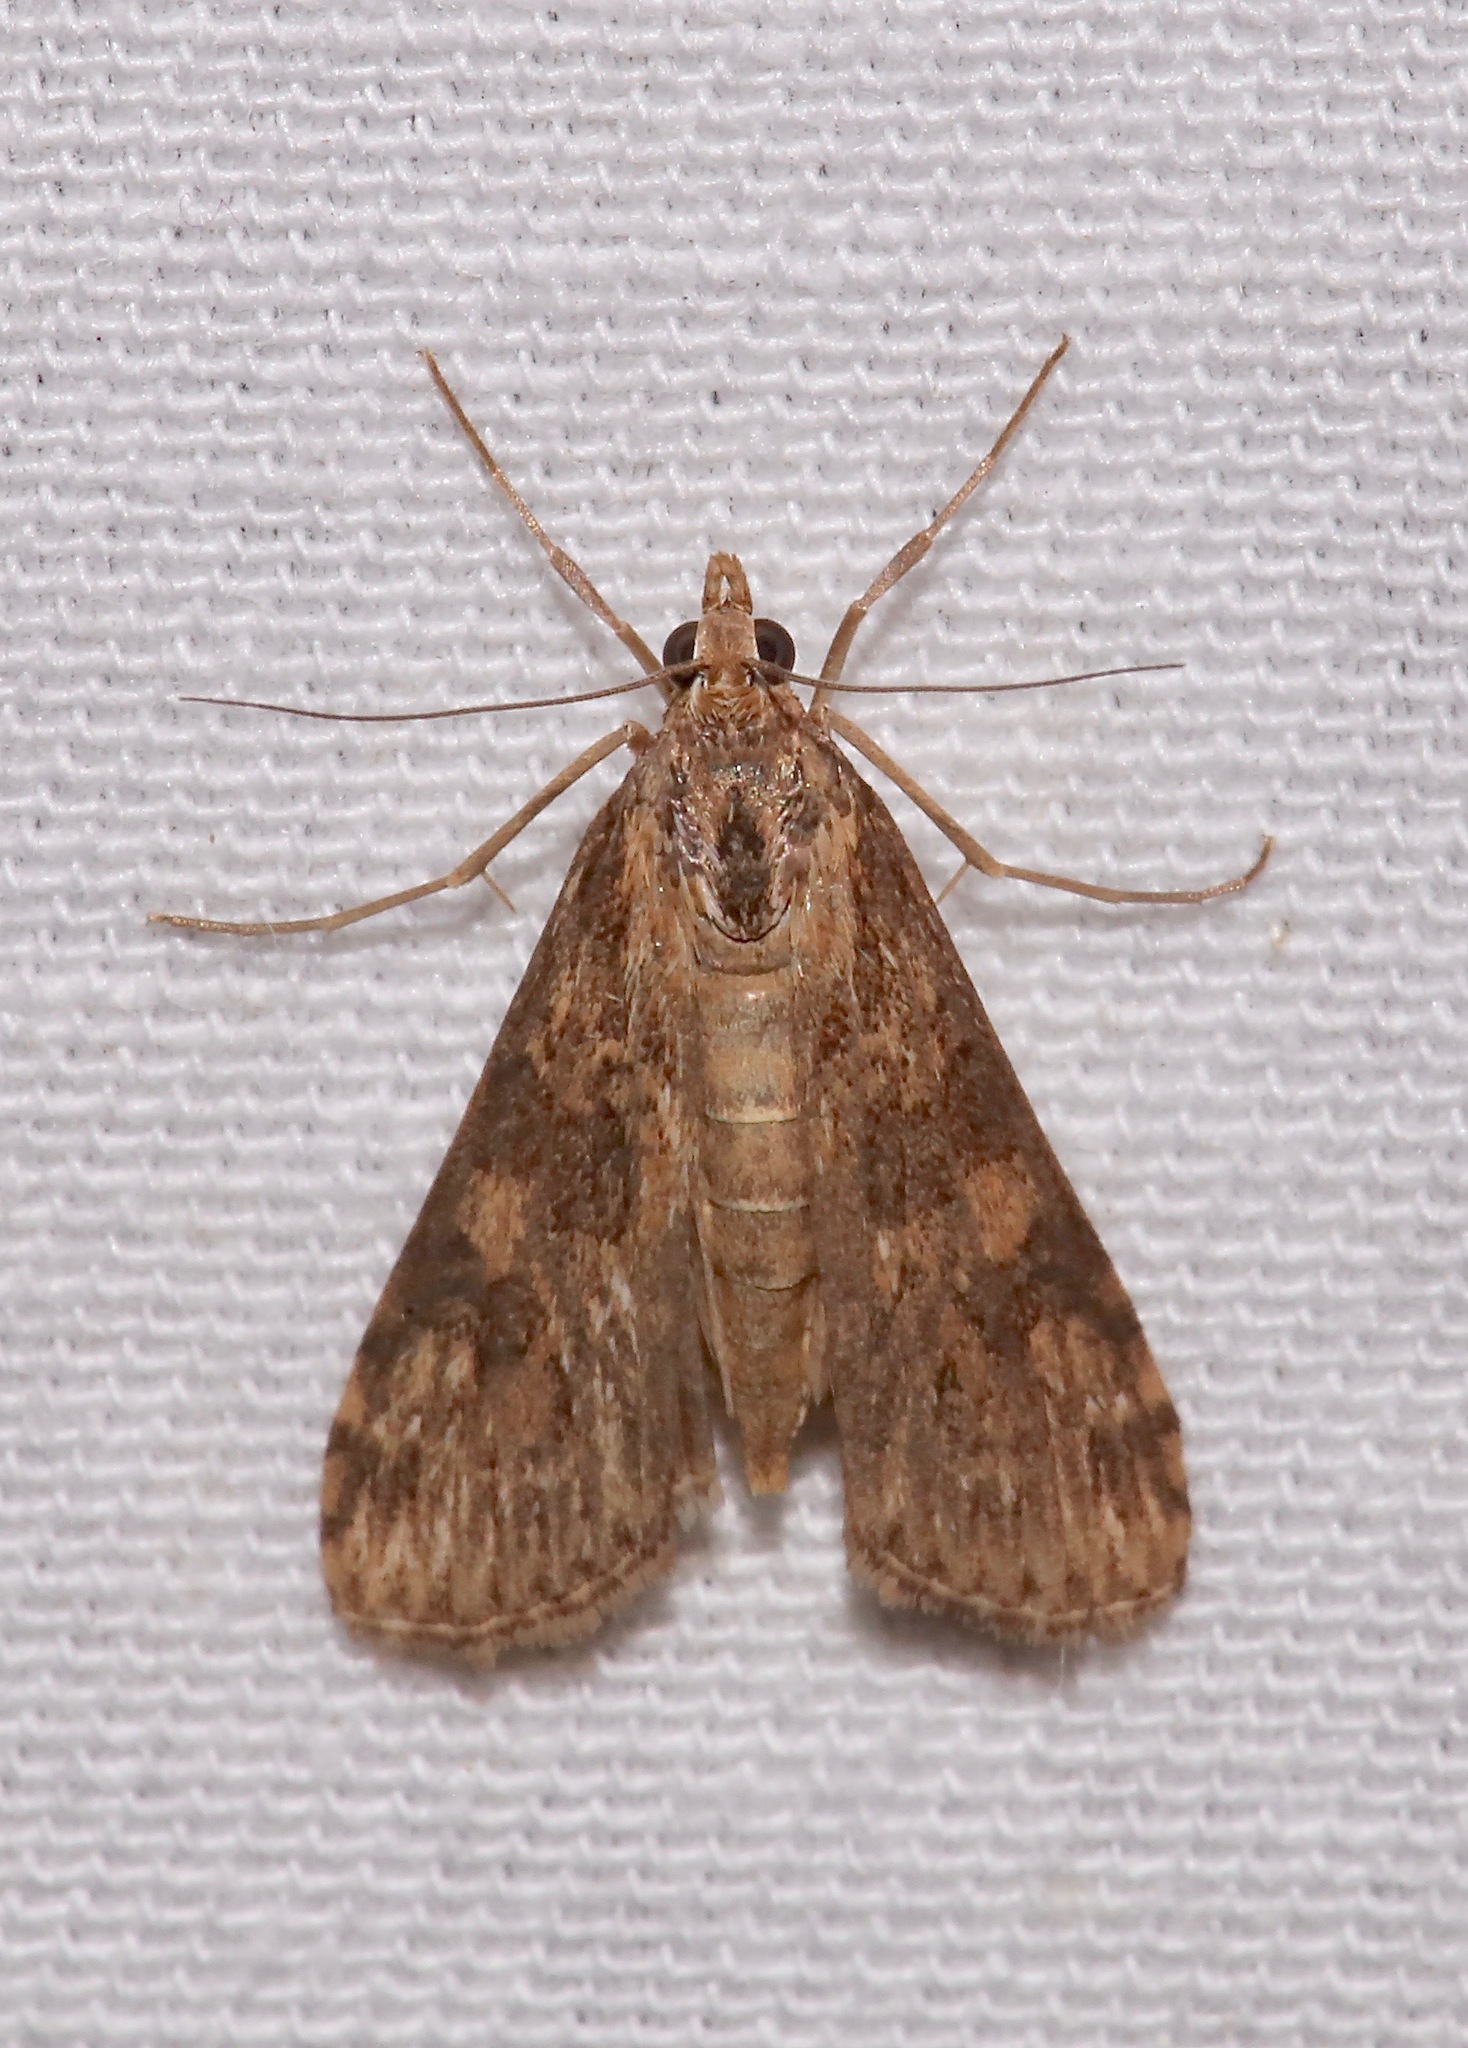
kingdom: Animalia
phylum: Arthropoda
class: Insecta
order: Lepidoptera
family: Crambidae
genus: Nomophila
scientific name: Nomophila nearctica
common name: American rush veneer
